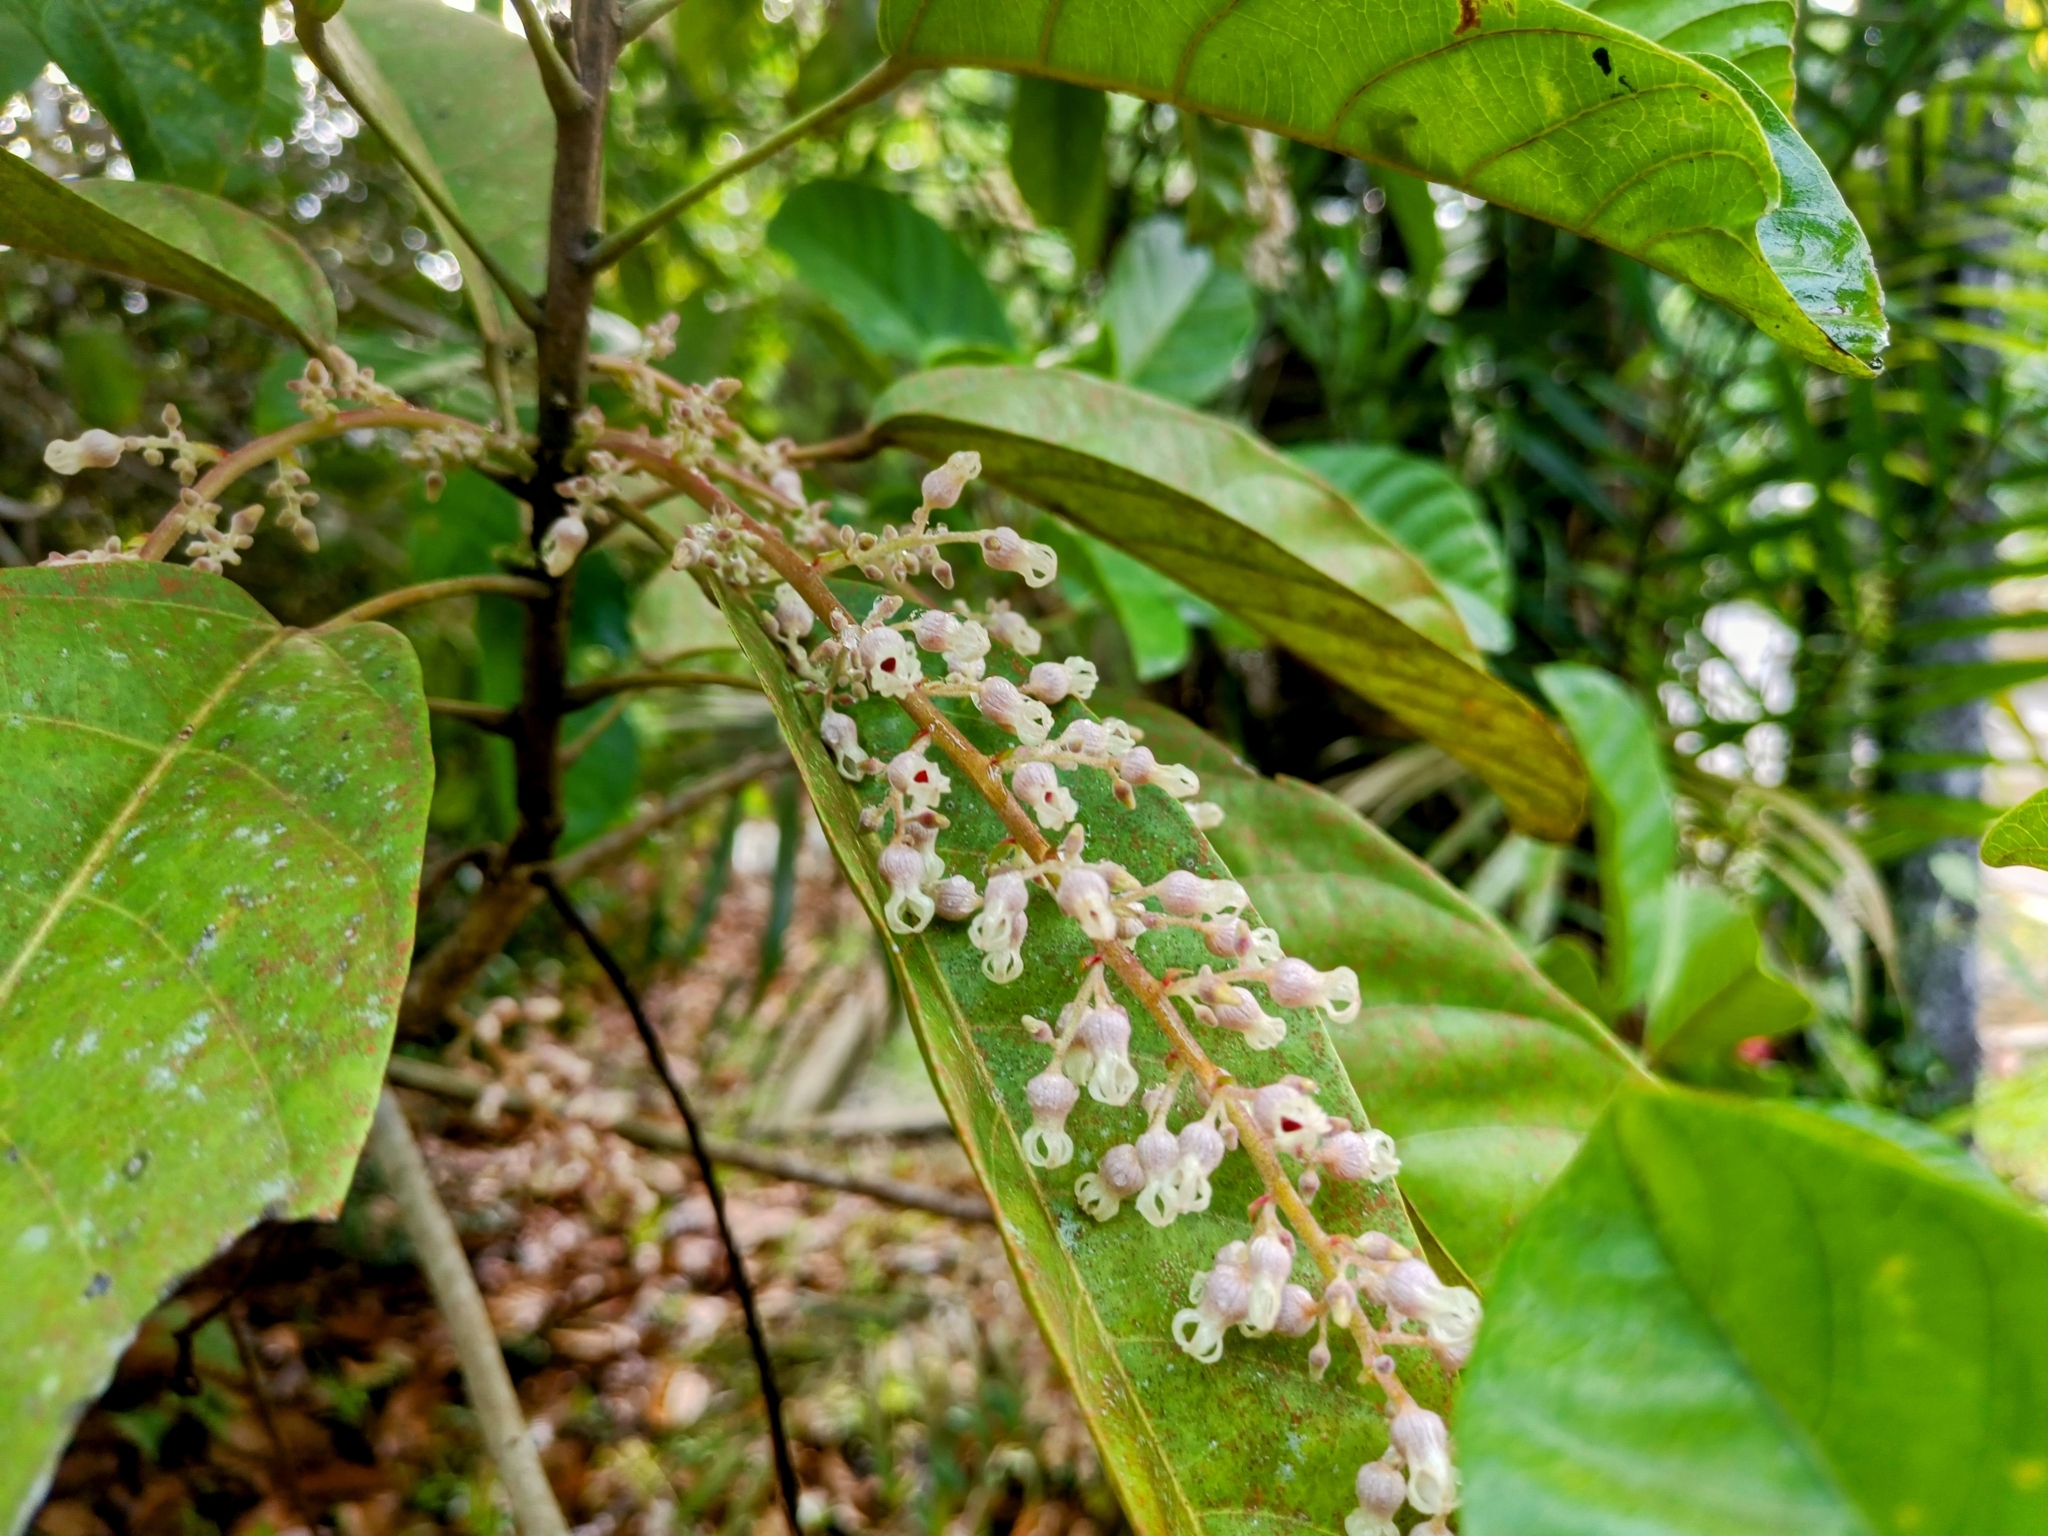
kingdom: Plantae
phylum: Tracheophyta
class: Magnoliopsida
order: Malvales
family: Malvaceae
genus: Sterculia
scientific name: Sterculia parviflora
